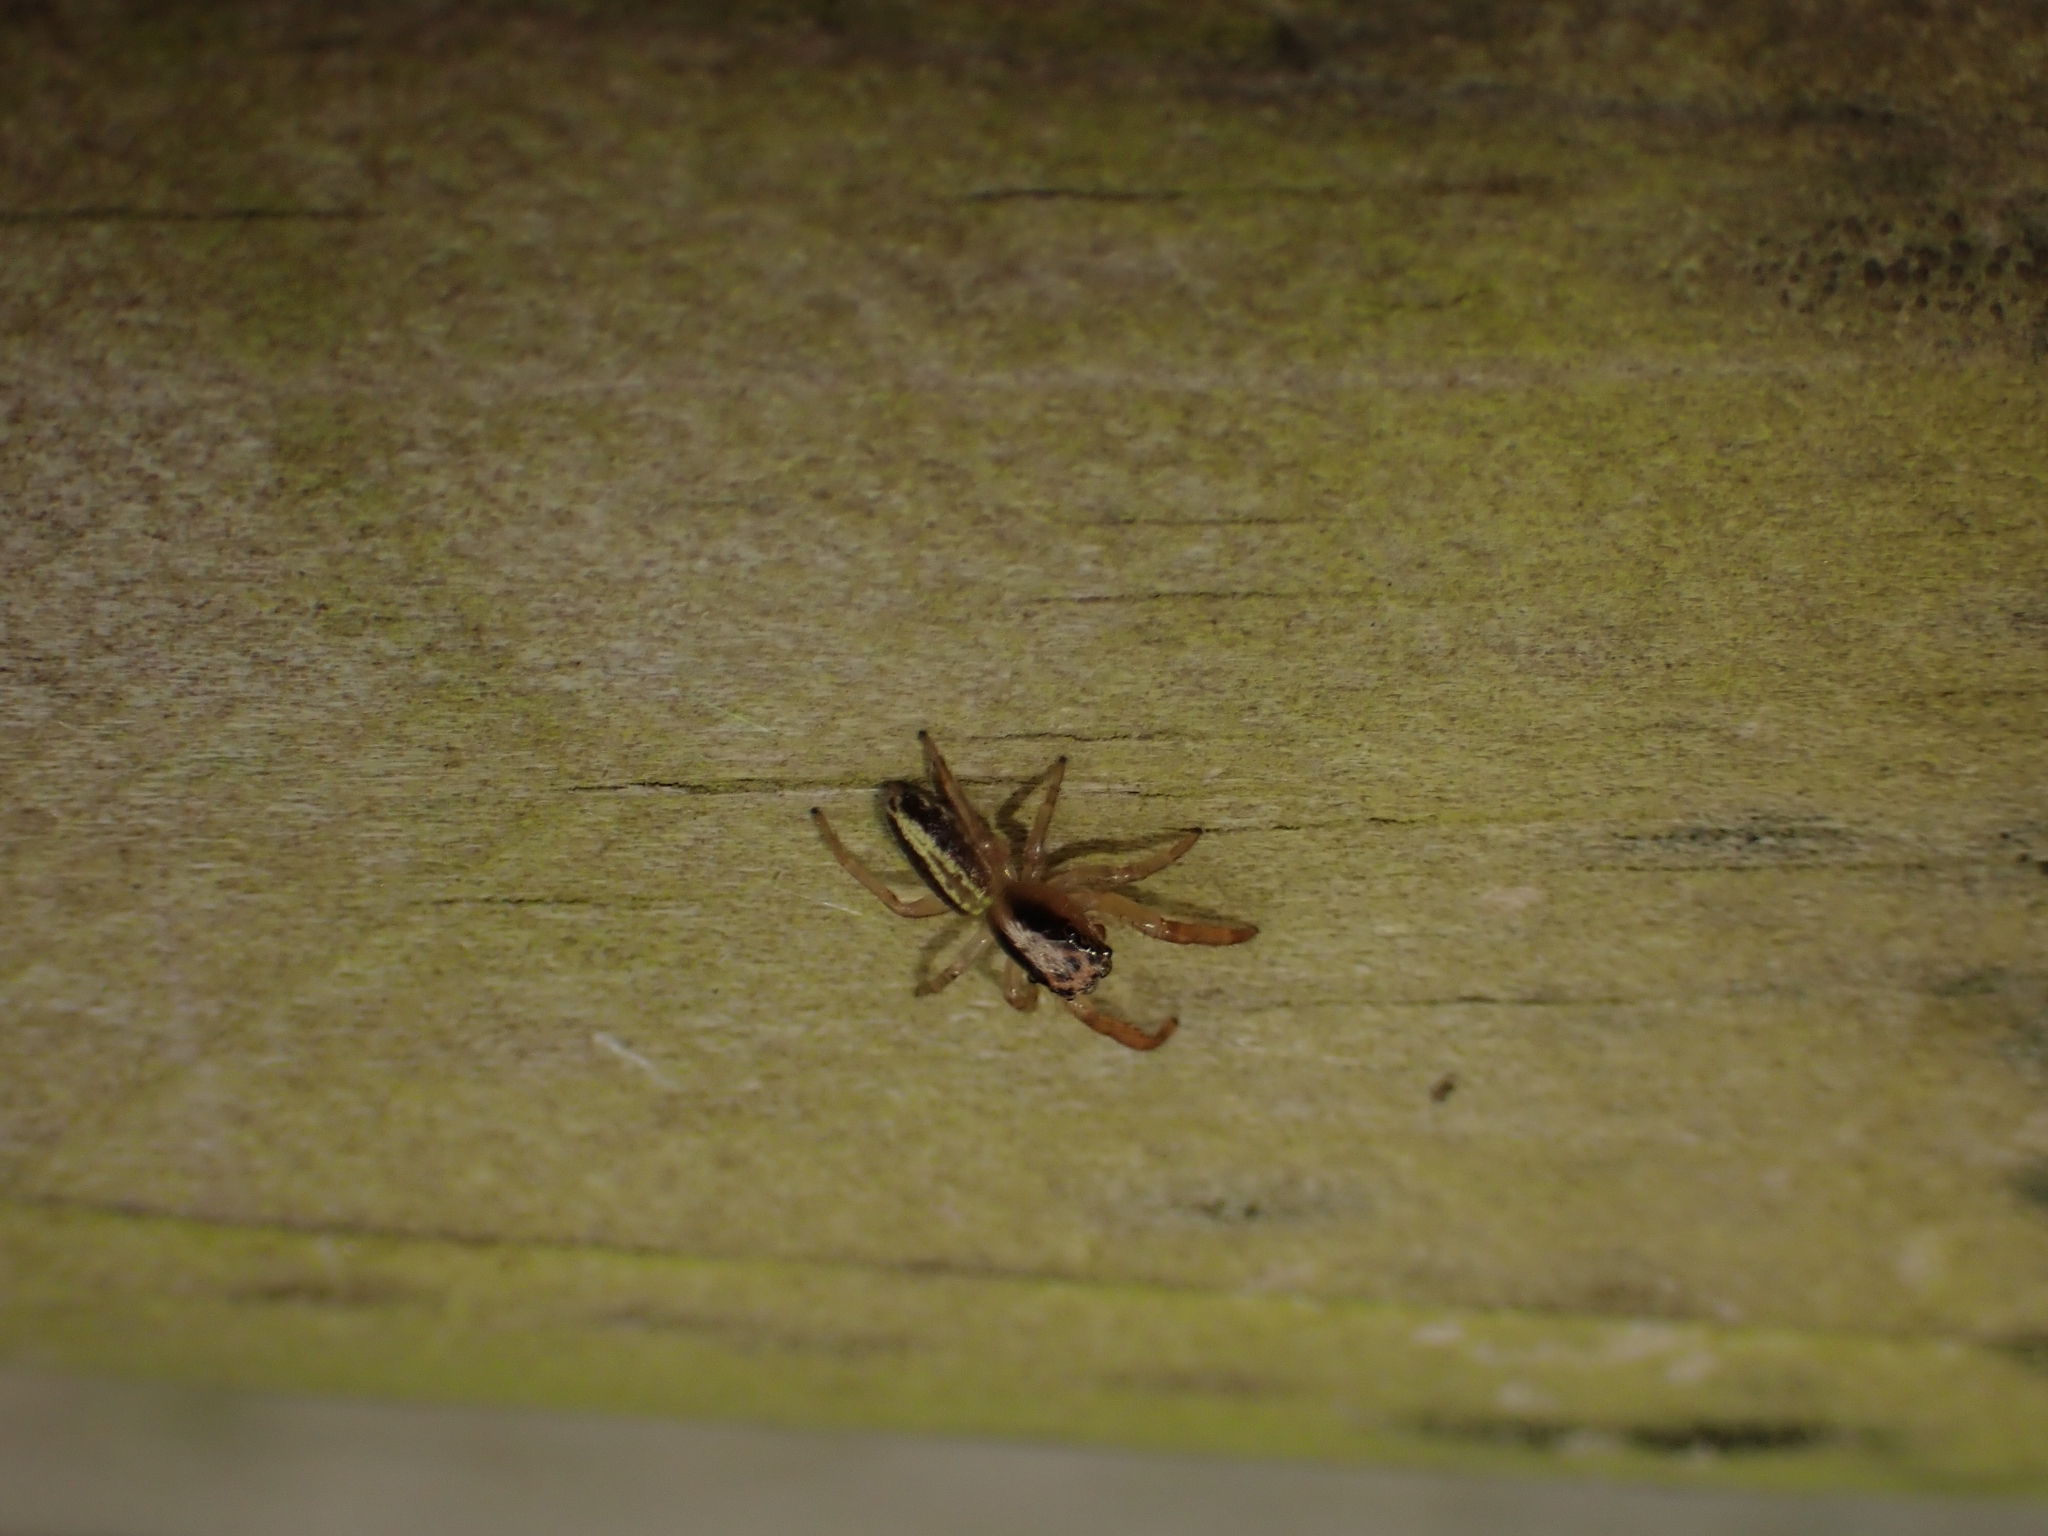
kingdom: Animalia
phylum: Arthropoda
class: Arachnida
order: Araneae
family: Salticidae
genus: Trite
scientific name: Trite planiceps
